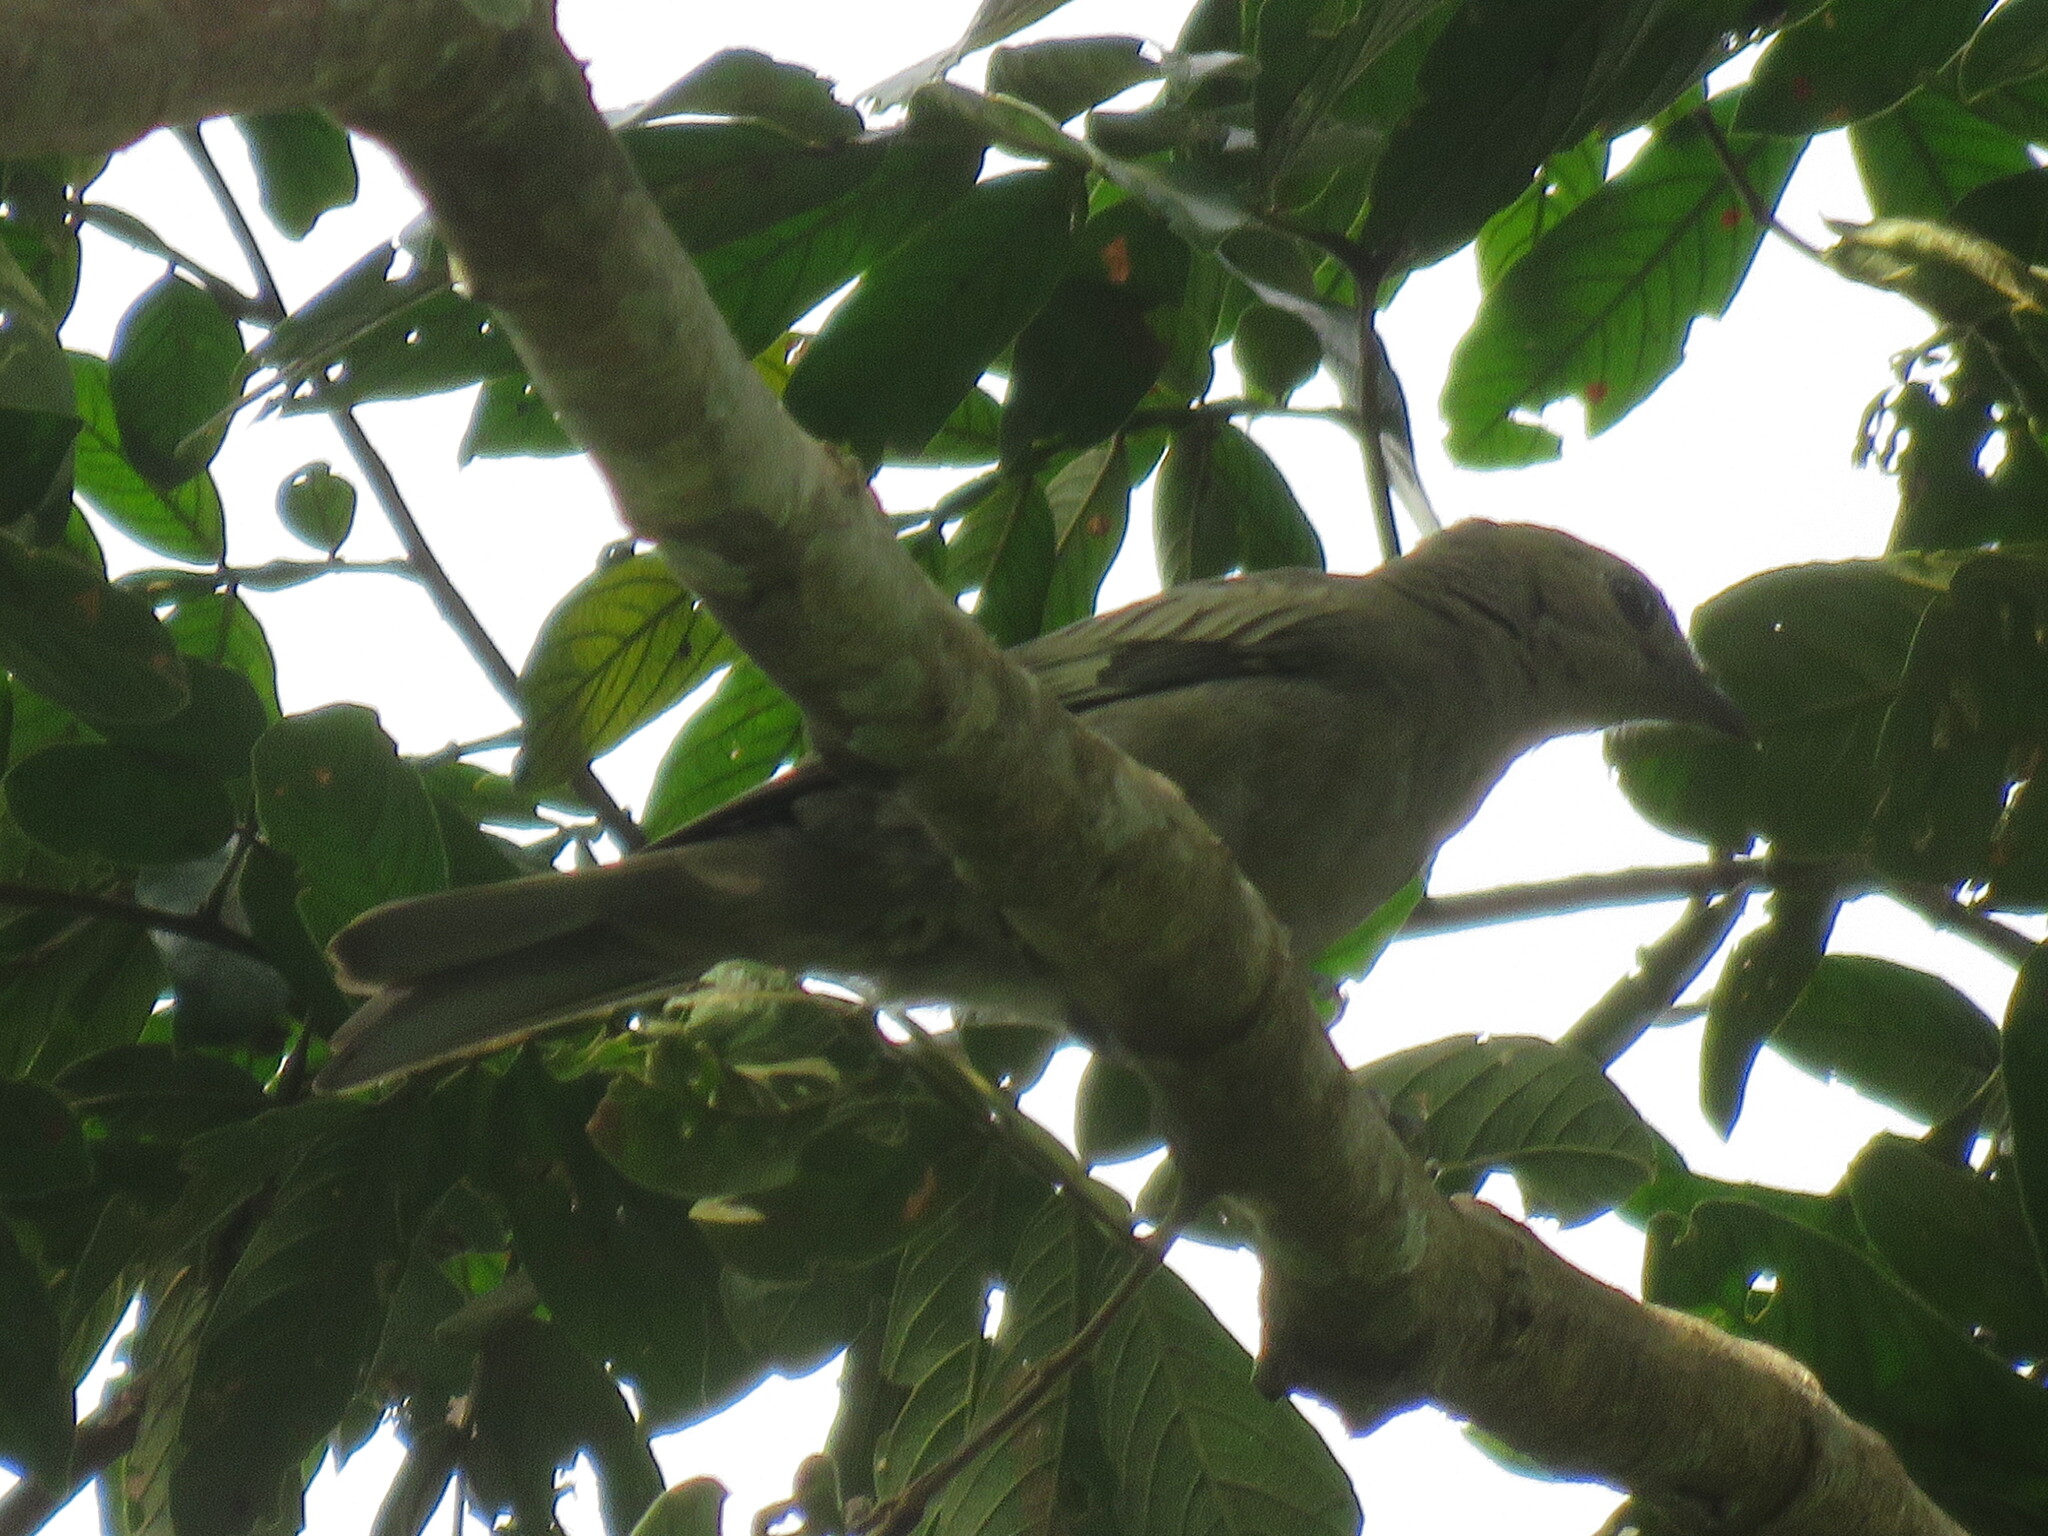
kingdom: Animalia
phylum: Chordata
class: Aves
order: Passeriformes
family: Thraupidae
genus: Thraupis
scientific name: Thraupis palmarum
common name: Palm tanager
